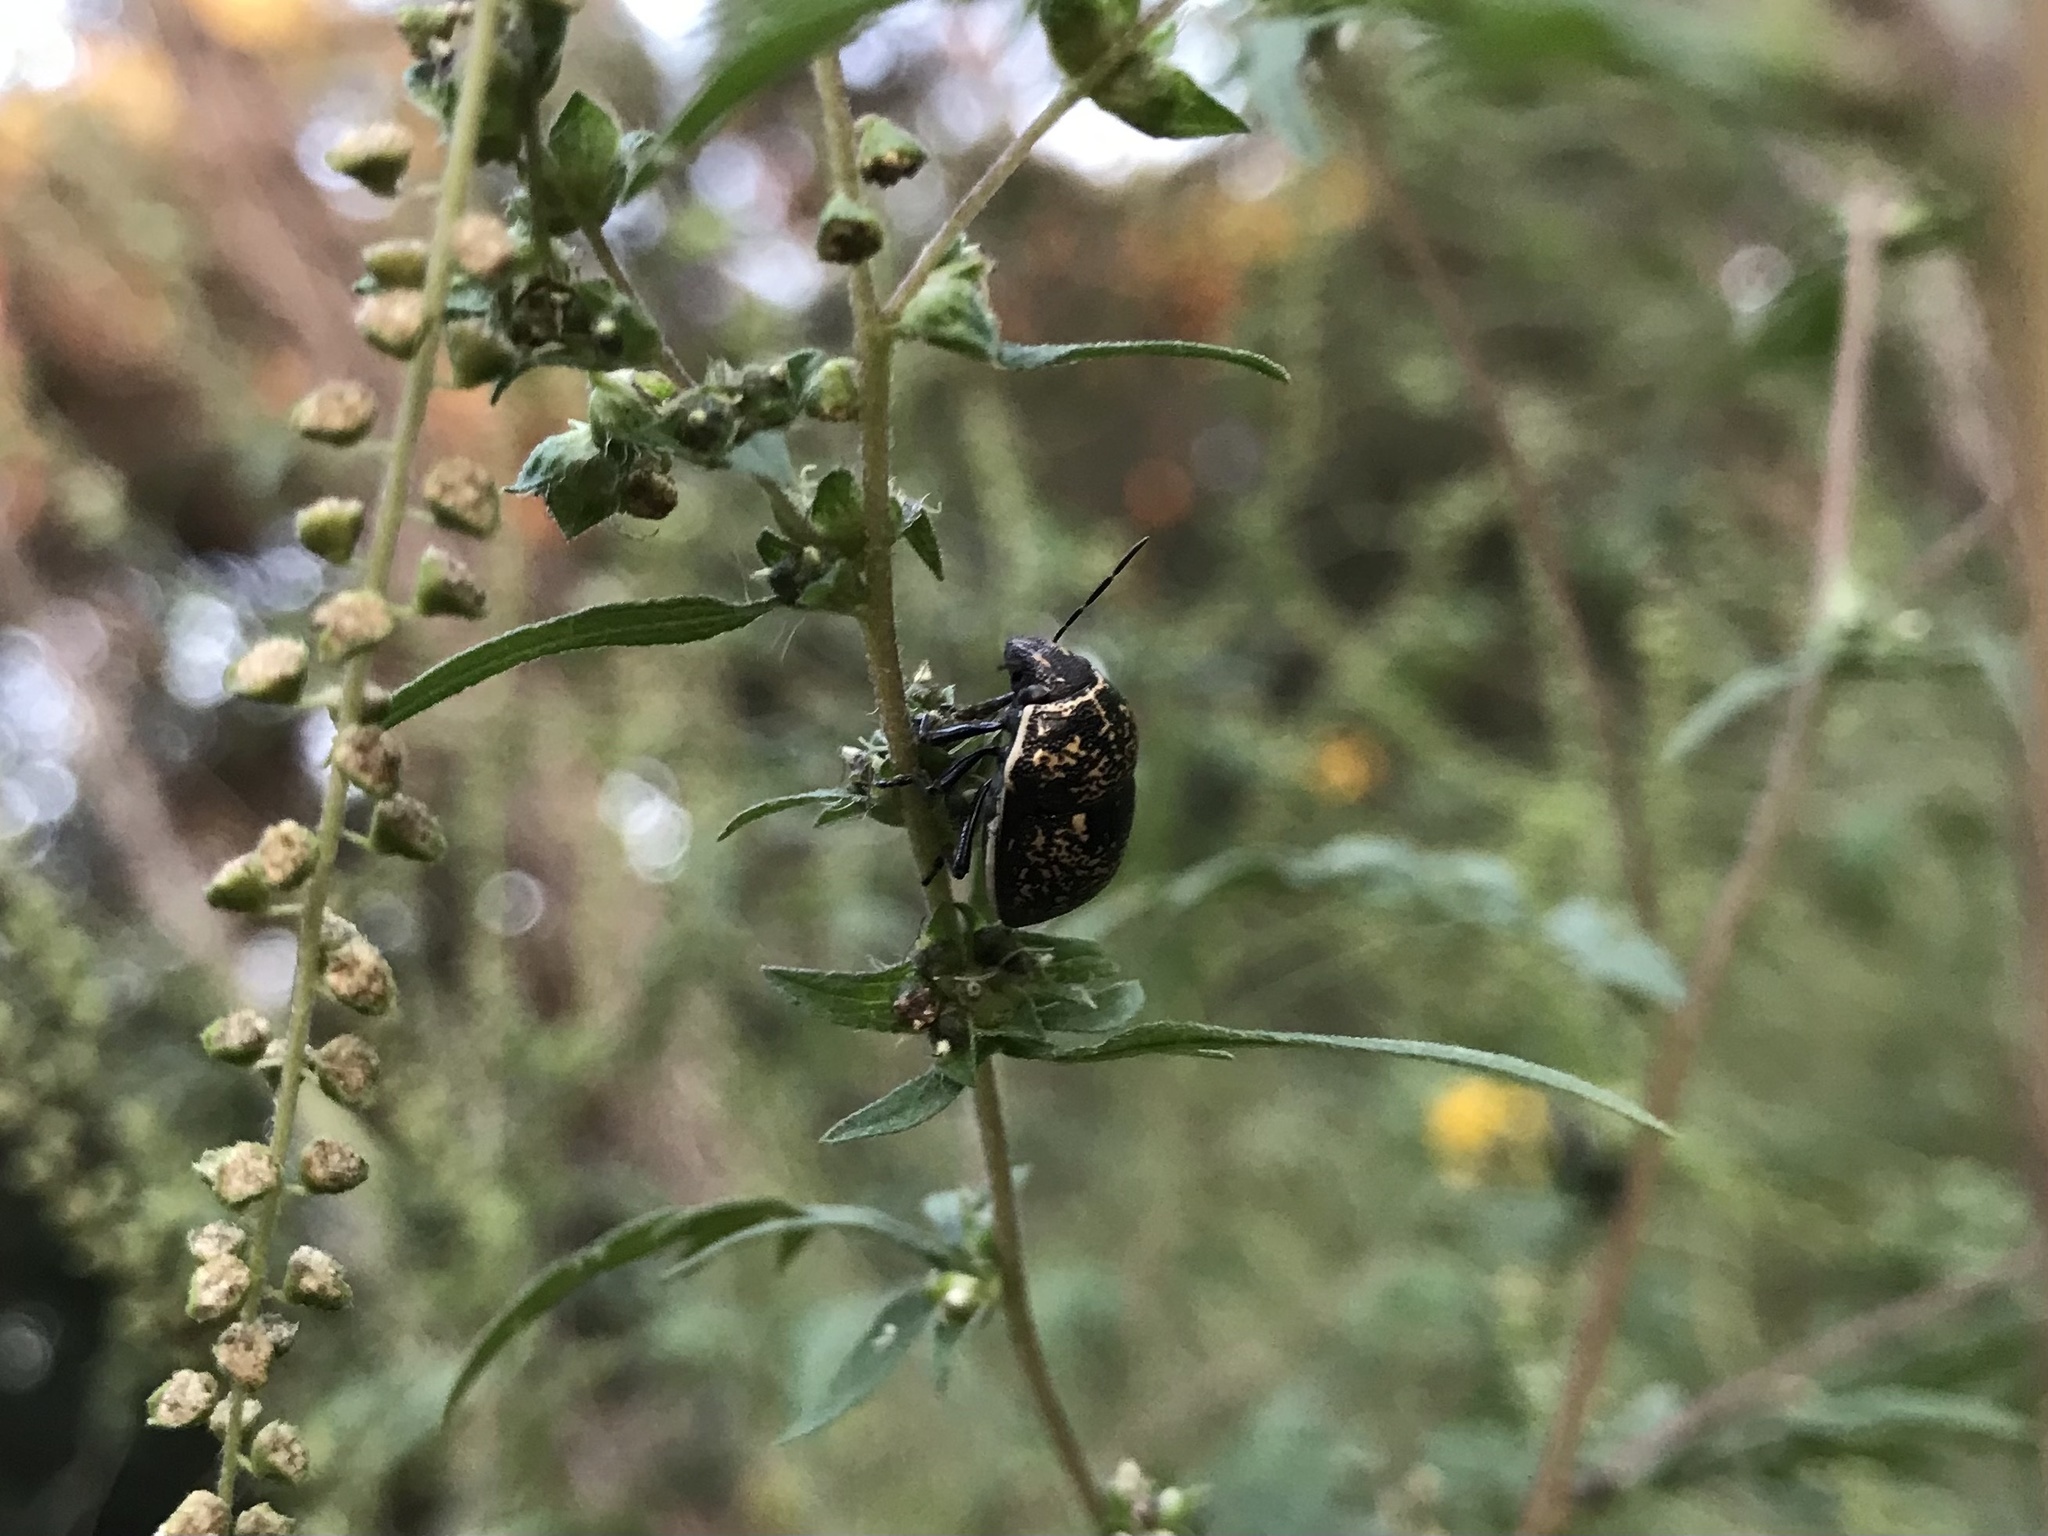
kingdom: Animalia
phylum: Arthropoda
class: Insecta
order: Hemiptera
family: Scutelleridae
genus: Orsilochides
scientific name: Orsilochides guttata
